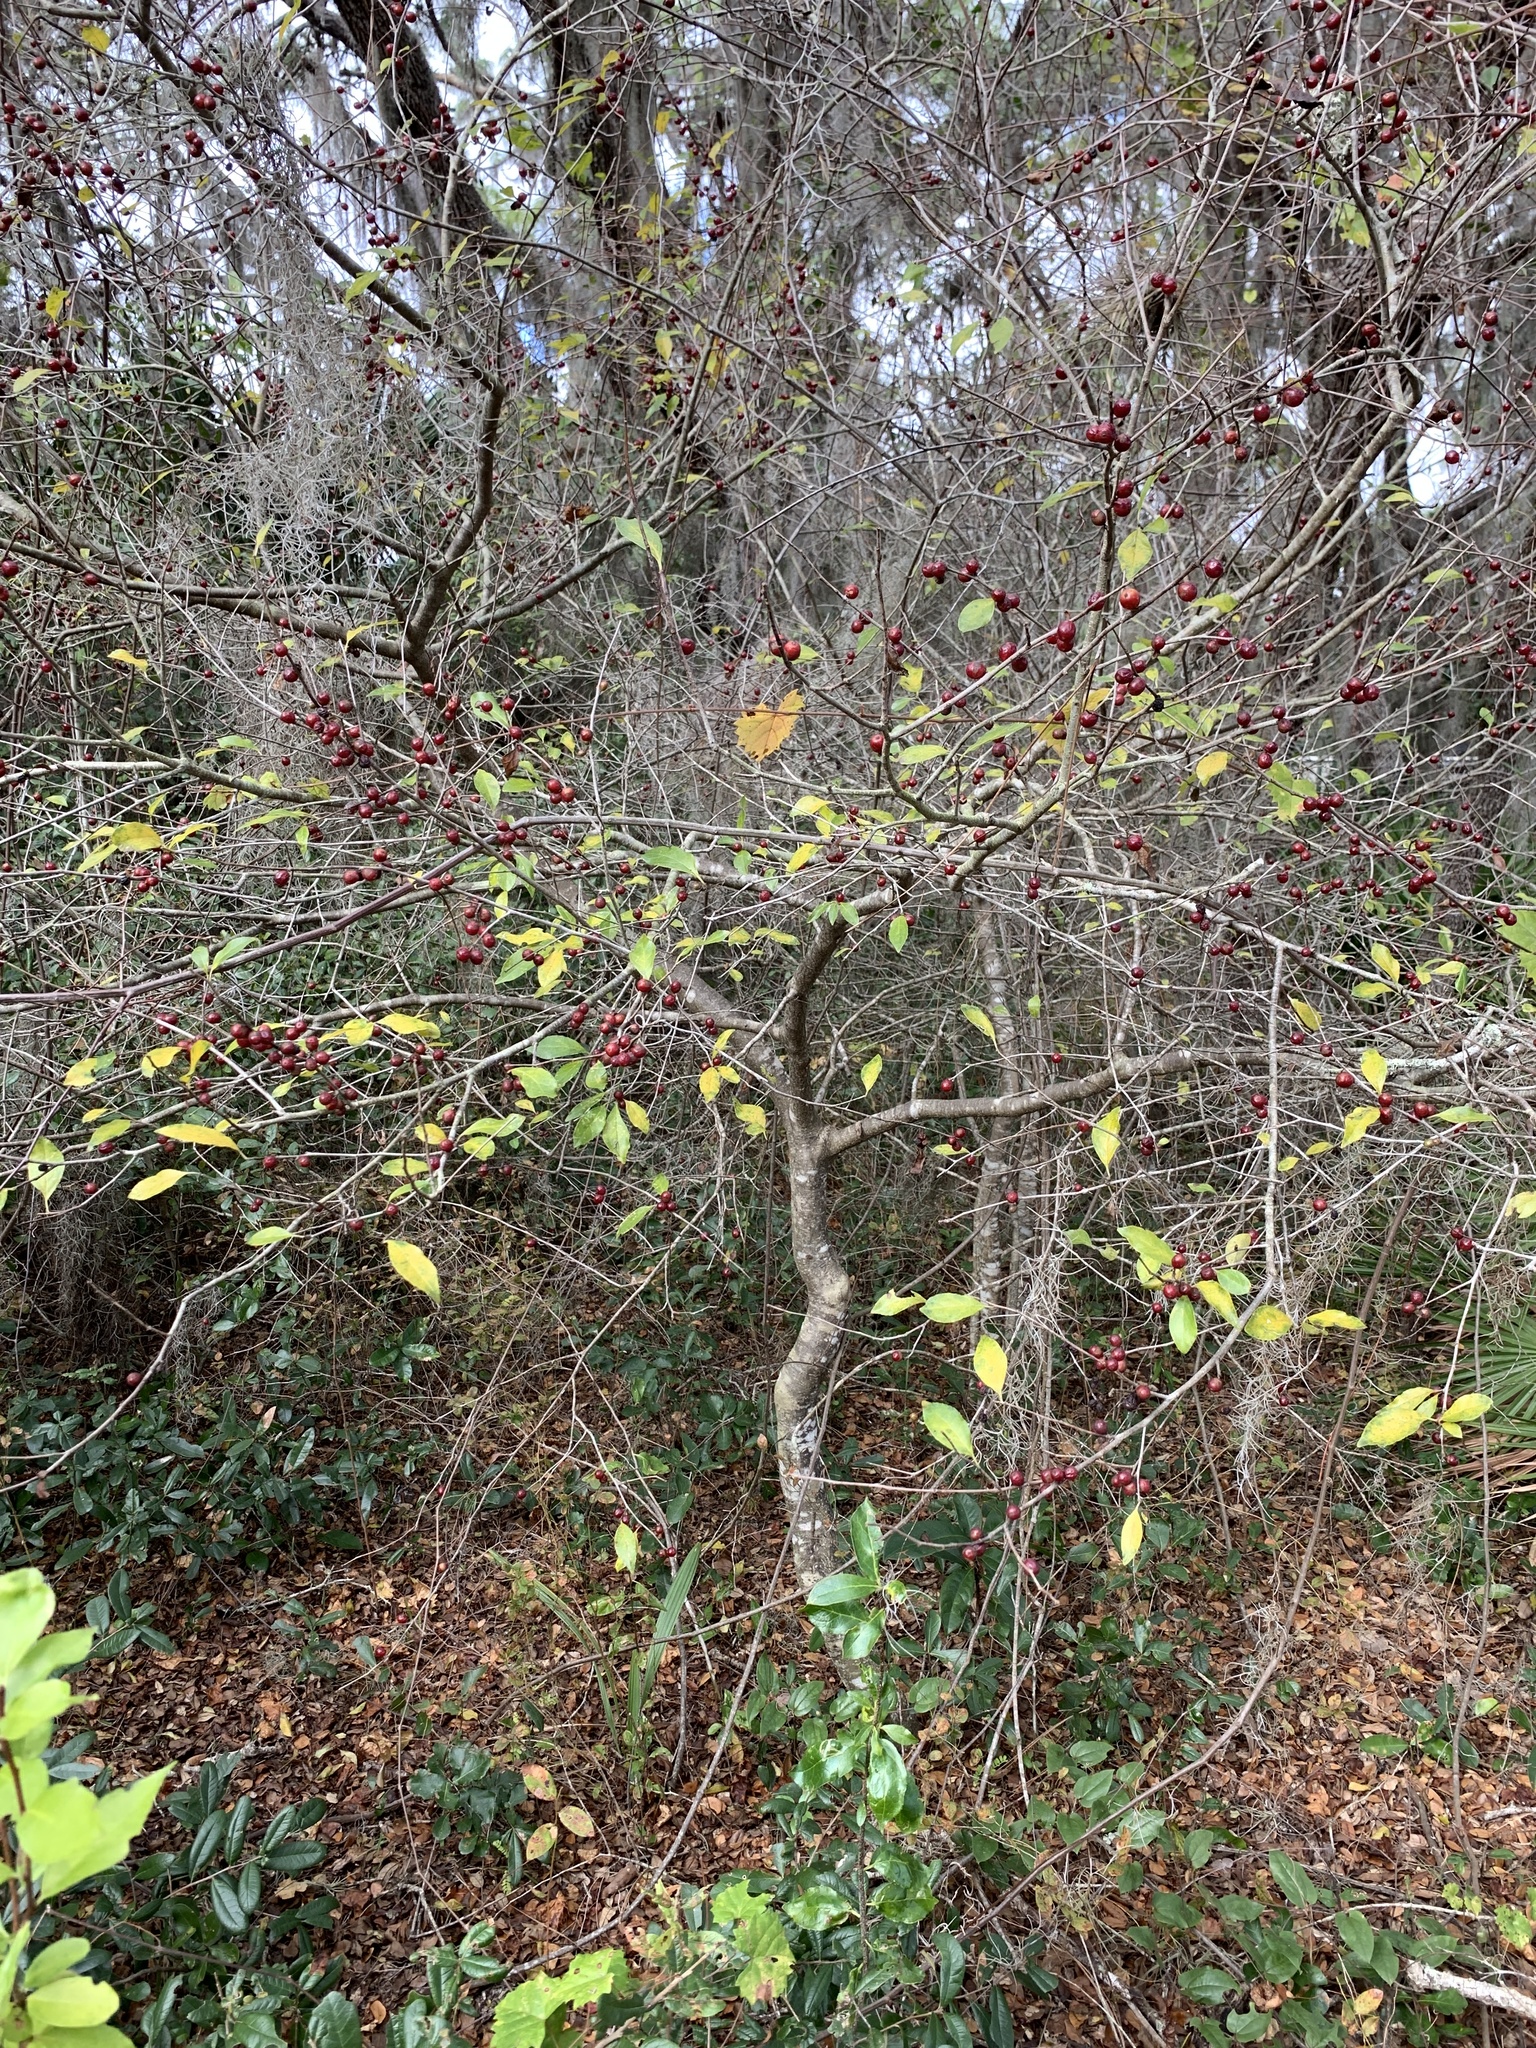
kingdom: Plantae
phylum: Tracheophyta
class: Magnoliopsida
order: Aquifoliales
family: Aquifoliaceae
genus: Ilex
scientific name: Ilex ambigua
